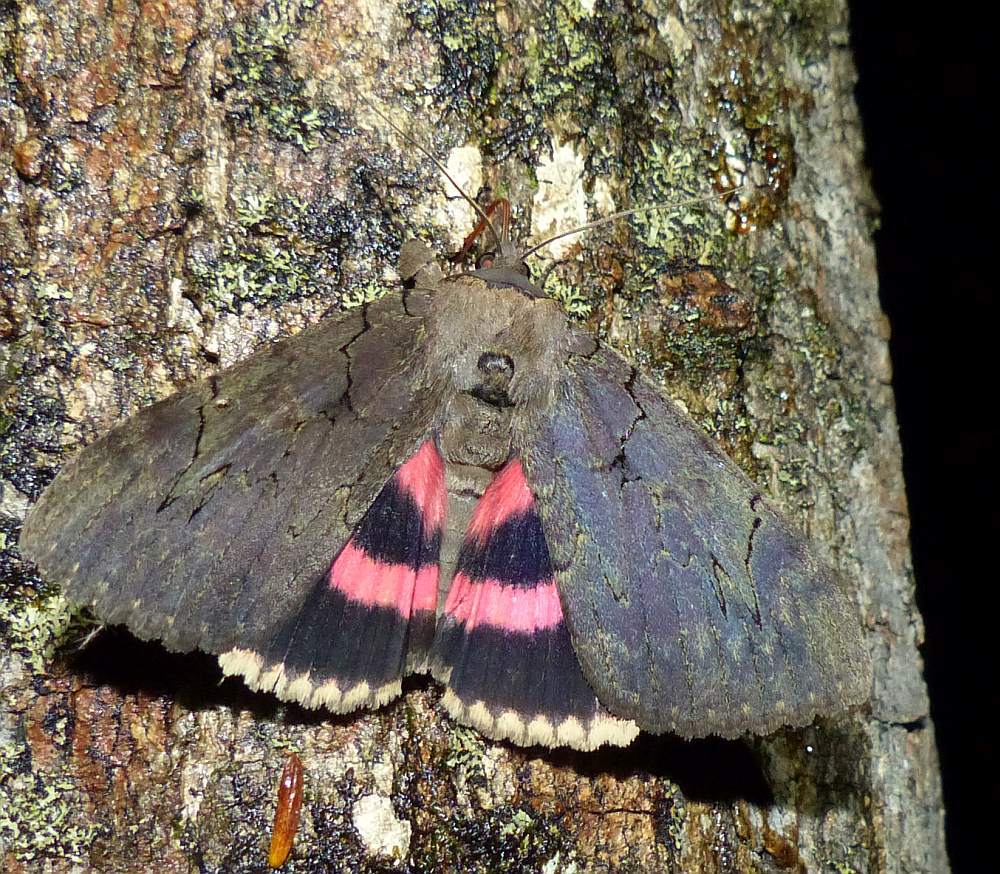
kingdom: Animalia
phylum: Arthropoda
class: Insecta
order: Lepidoptera
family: Erebidae
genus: Catocala
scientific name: Catocala cara
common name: Darling underwing
